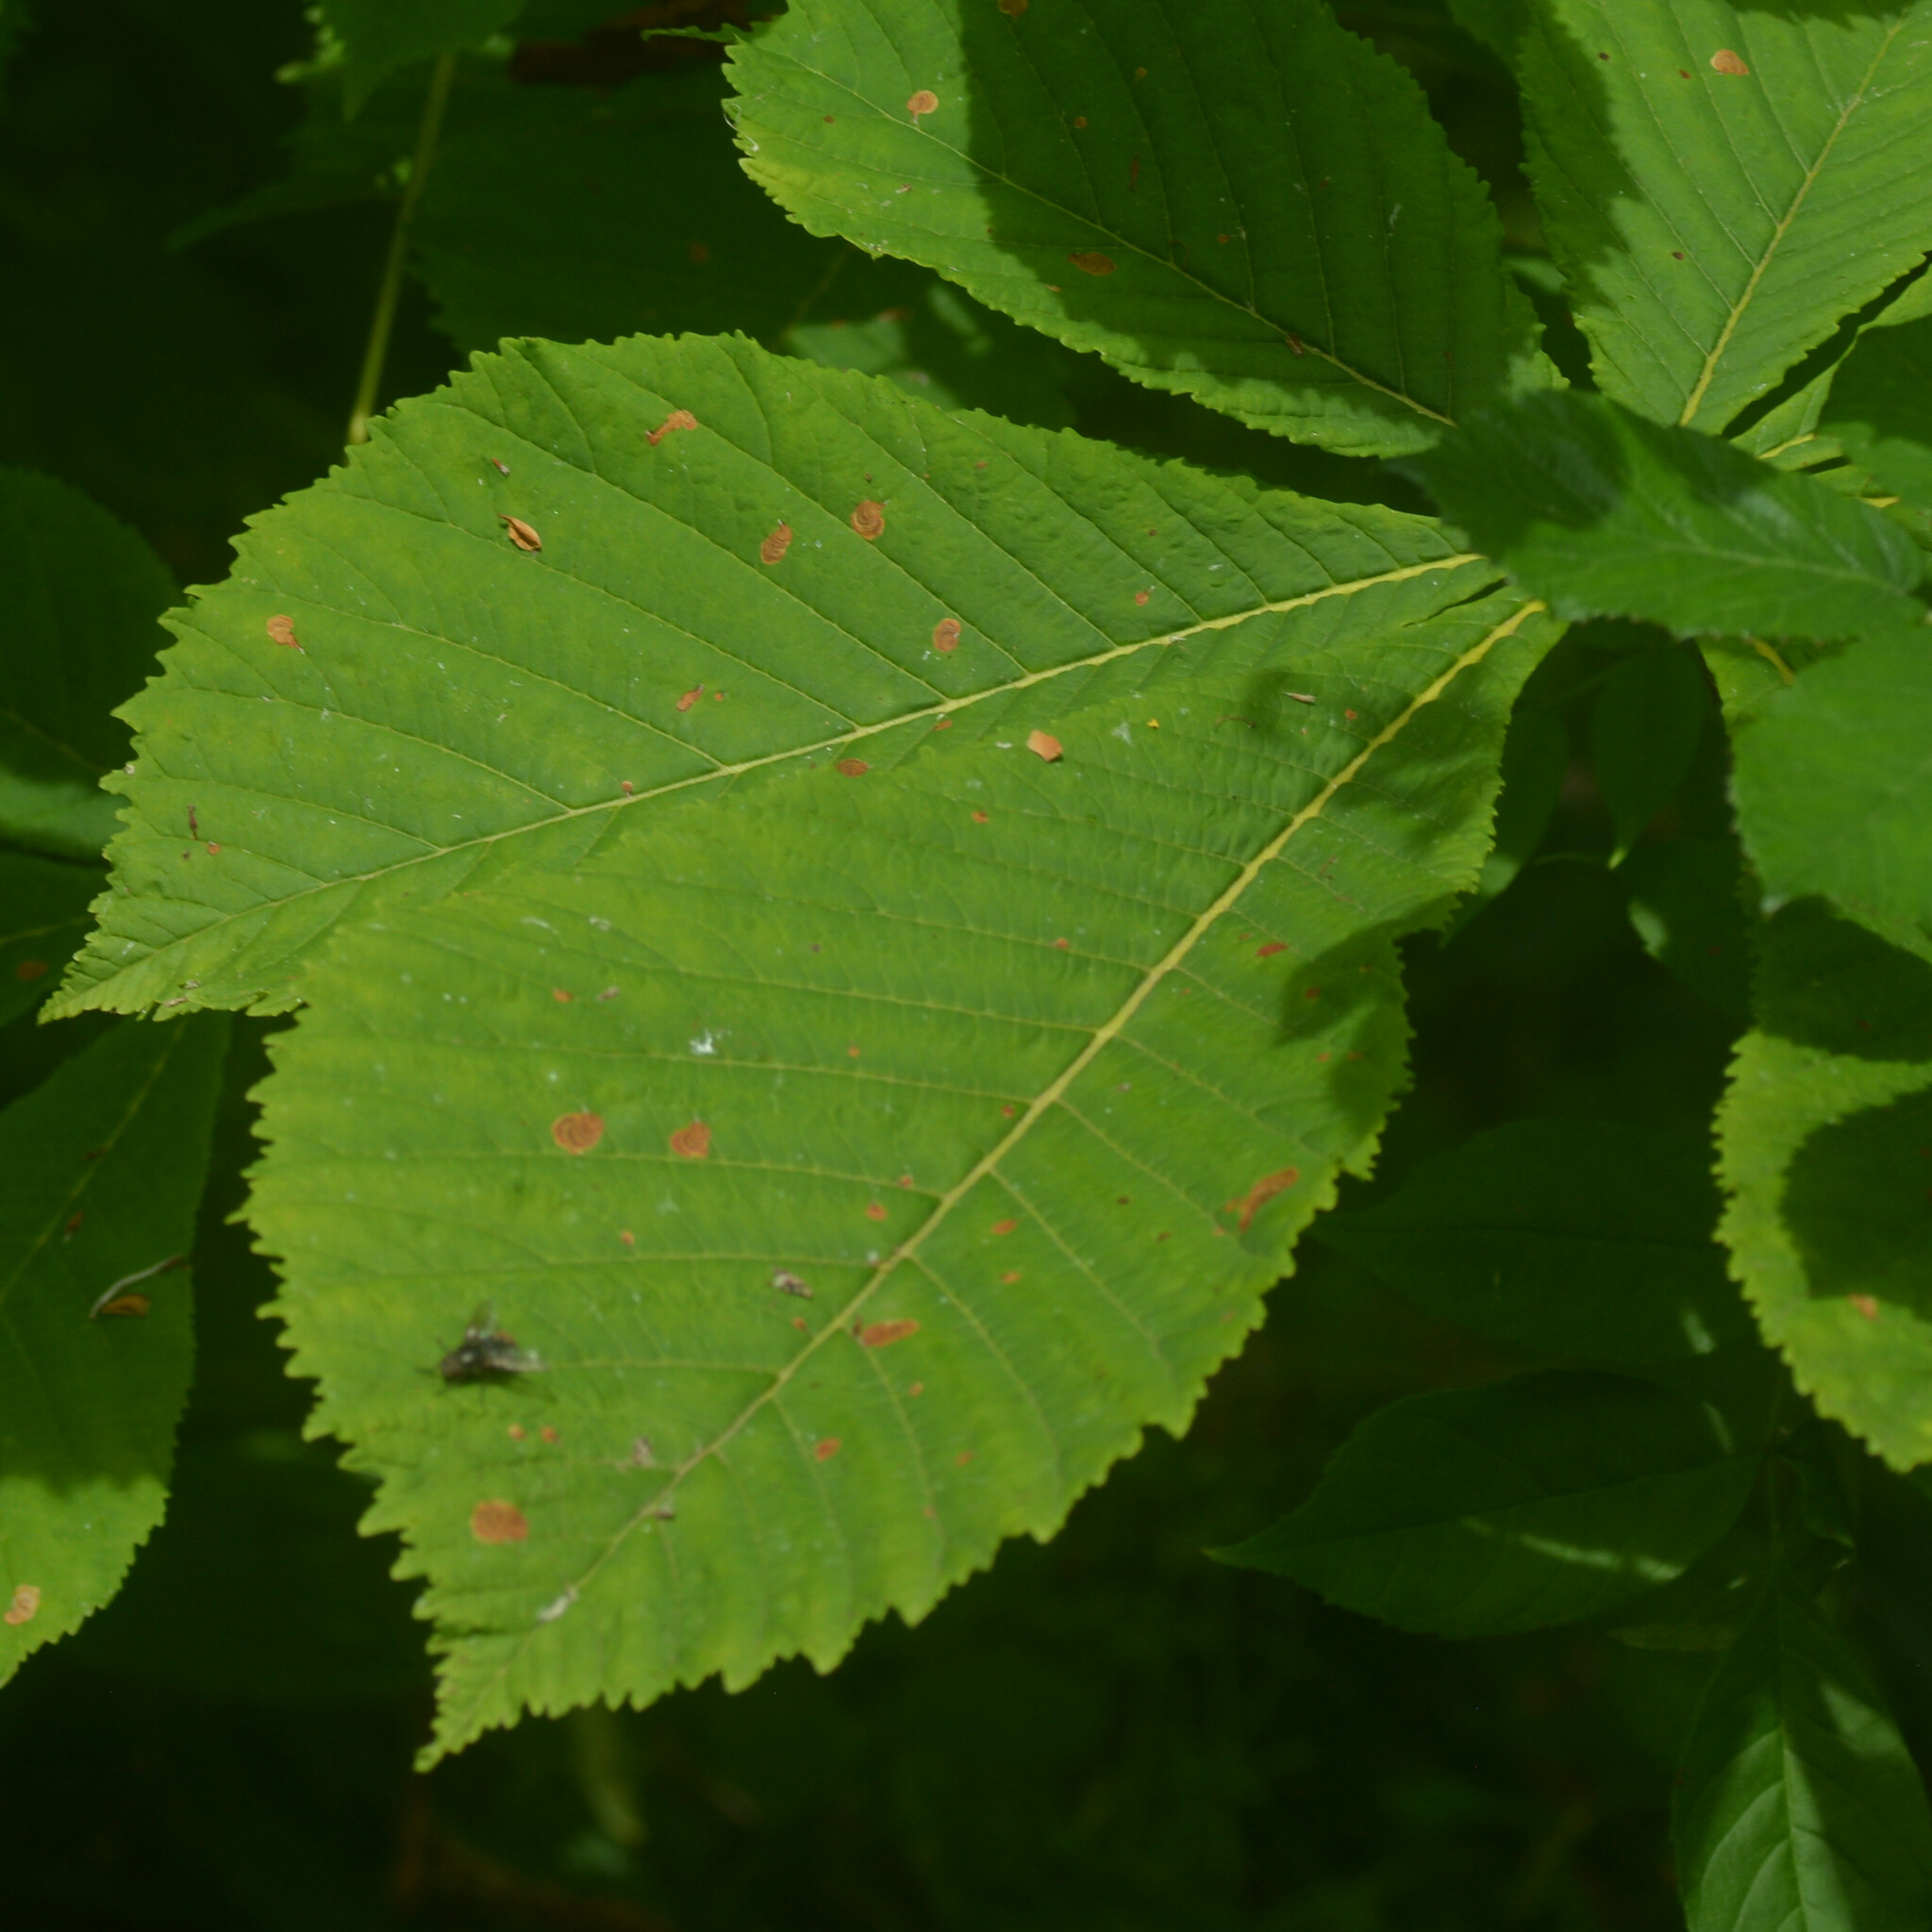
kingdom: Animalia
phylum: Arthropoda
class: Insecta
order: Lepidoptera
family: Gracillariidae
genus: Cameraria
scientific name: Cameraria ohridella
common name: Horse-chestnut leaf-miner
